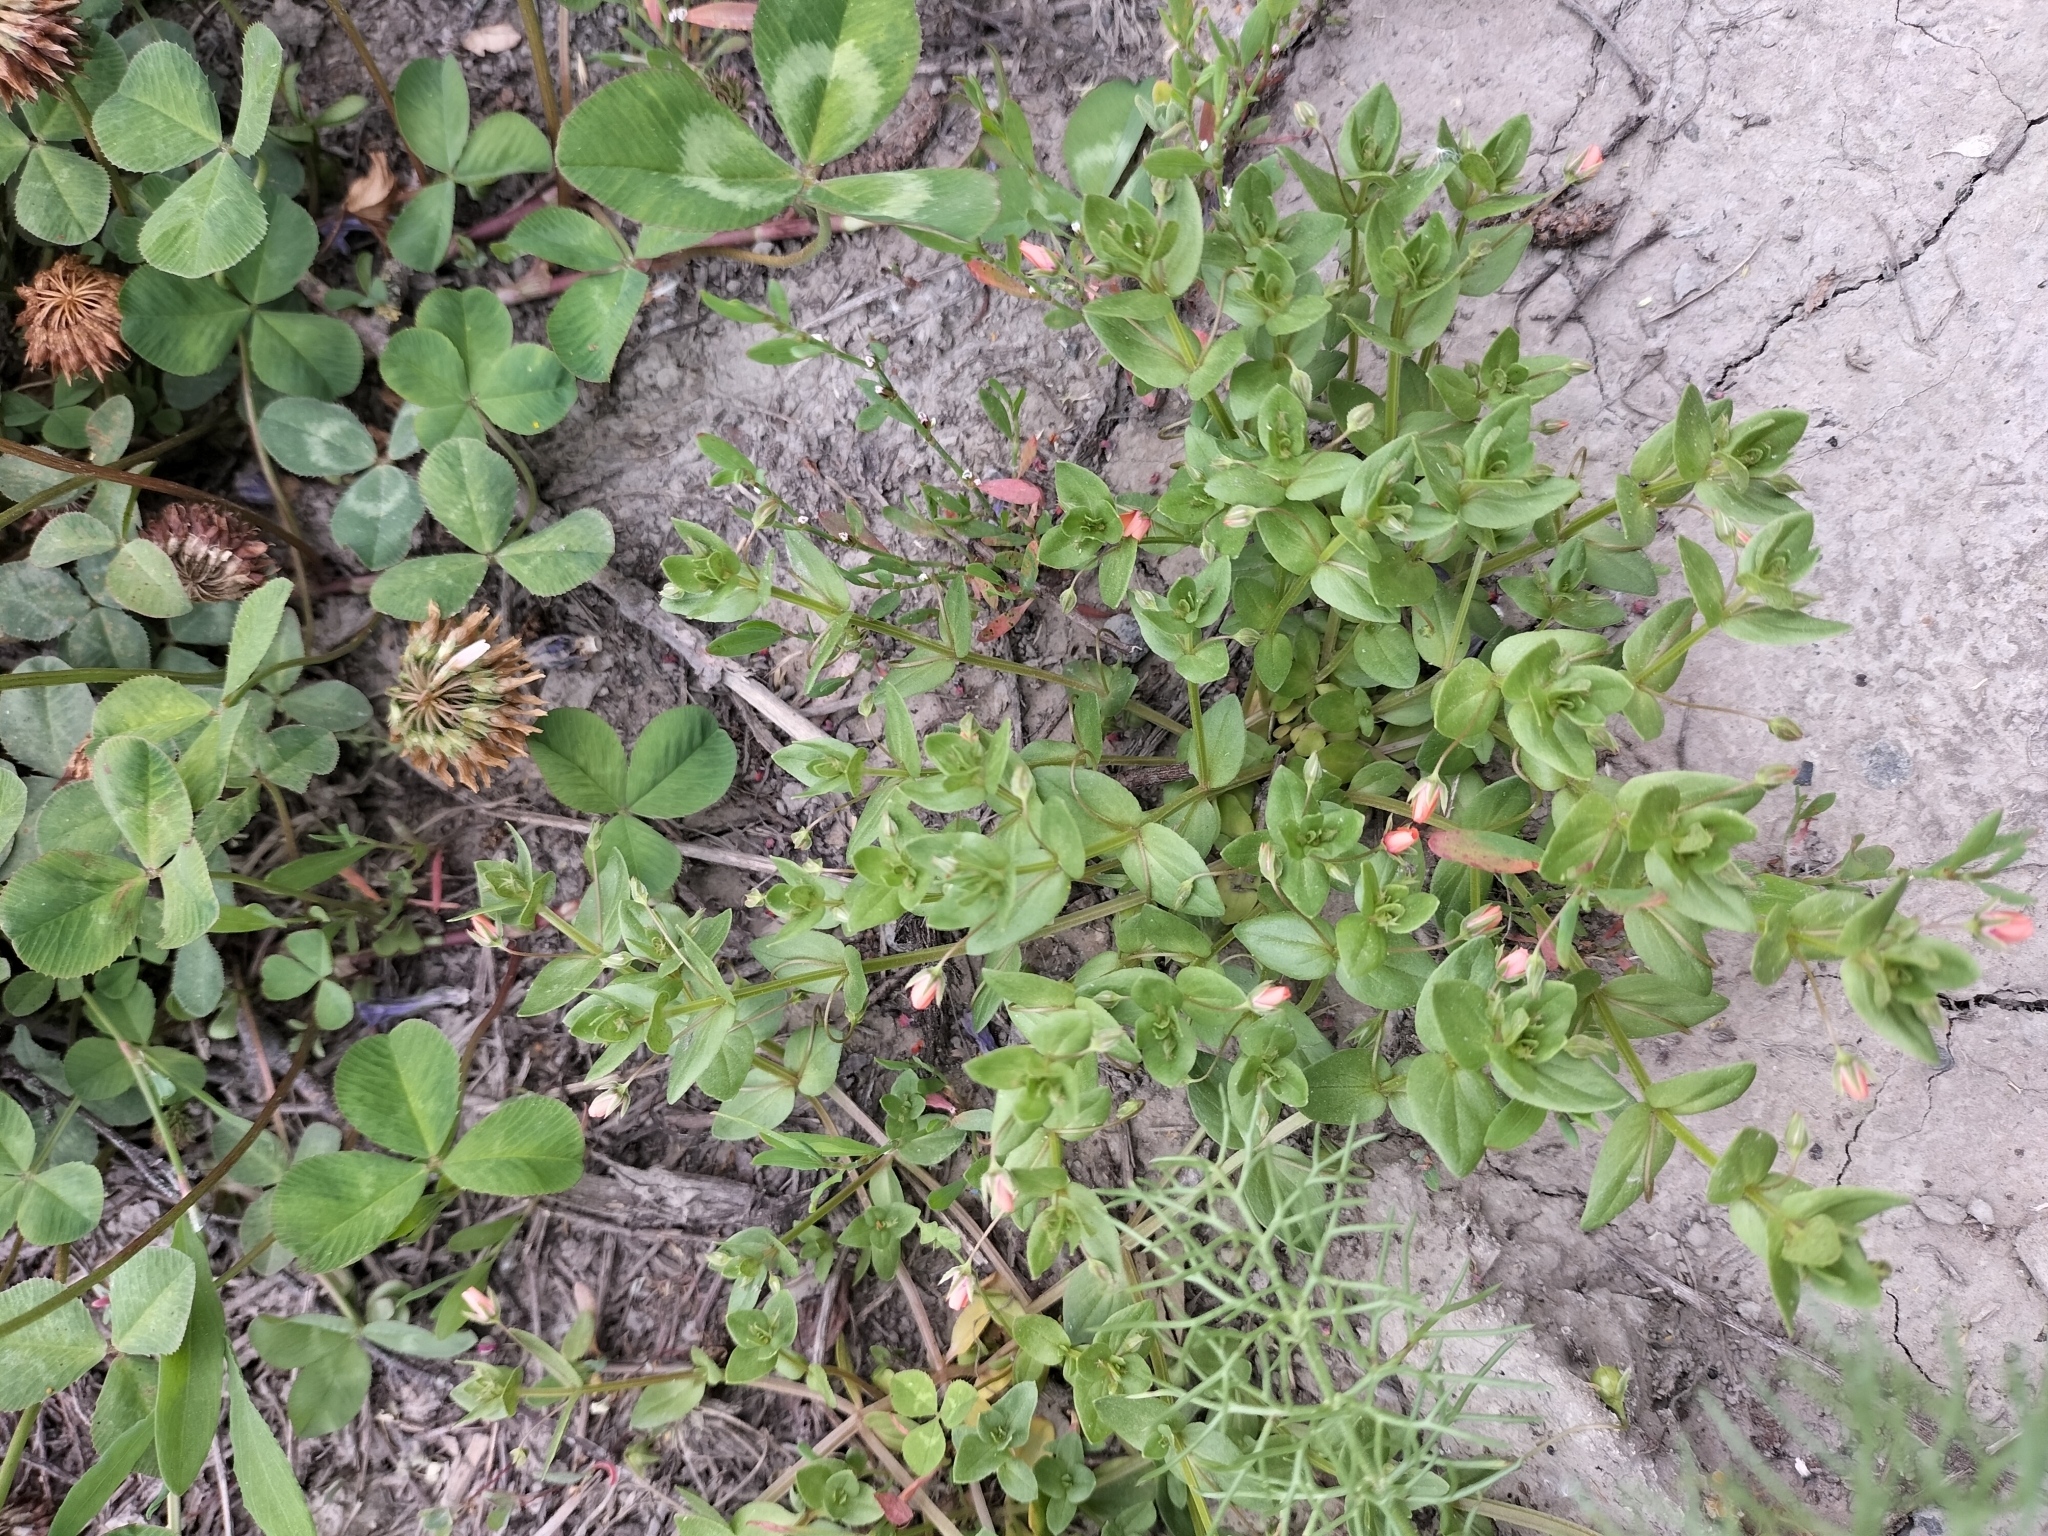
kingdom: Plantae
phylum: Tracheophyta
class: Magnoliopsida
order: Ericales
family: Primulaceae
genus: Lysimachia
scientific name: Lysimachia arvensis
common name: Scarlet pimpernel
